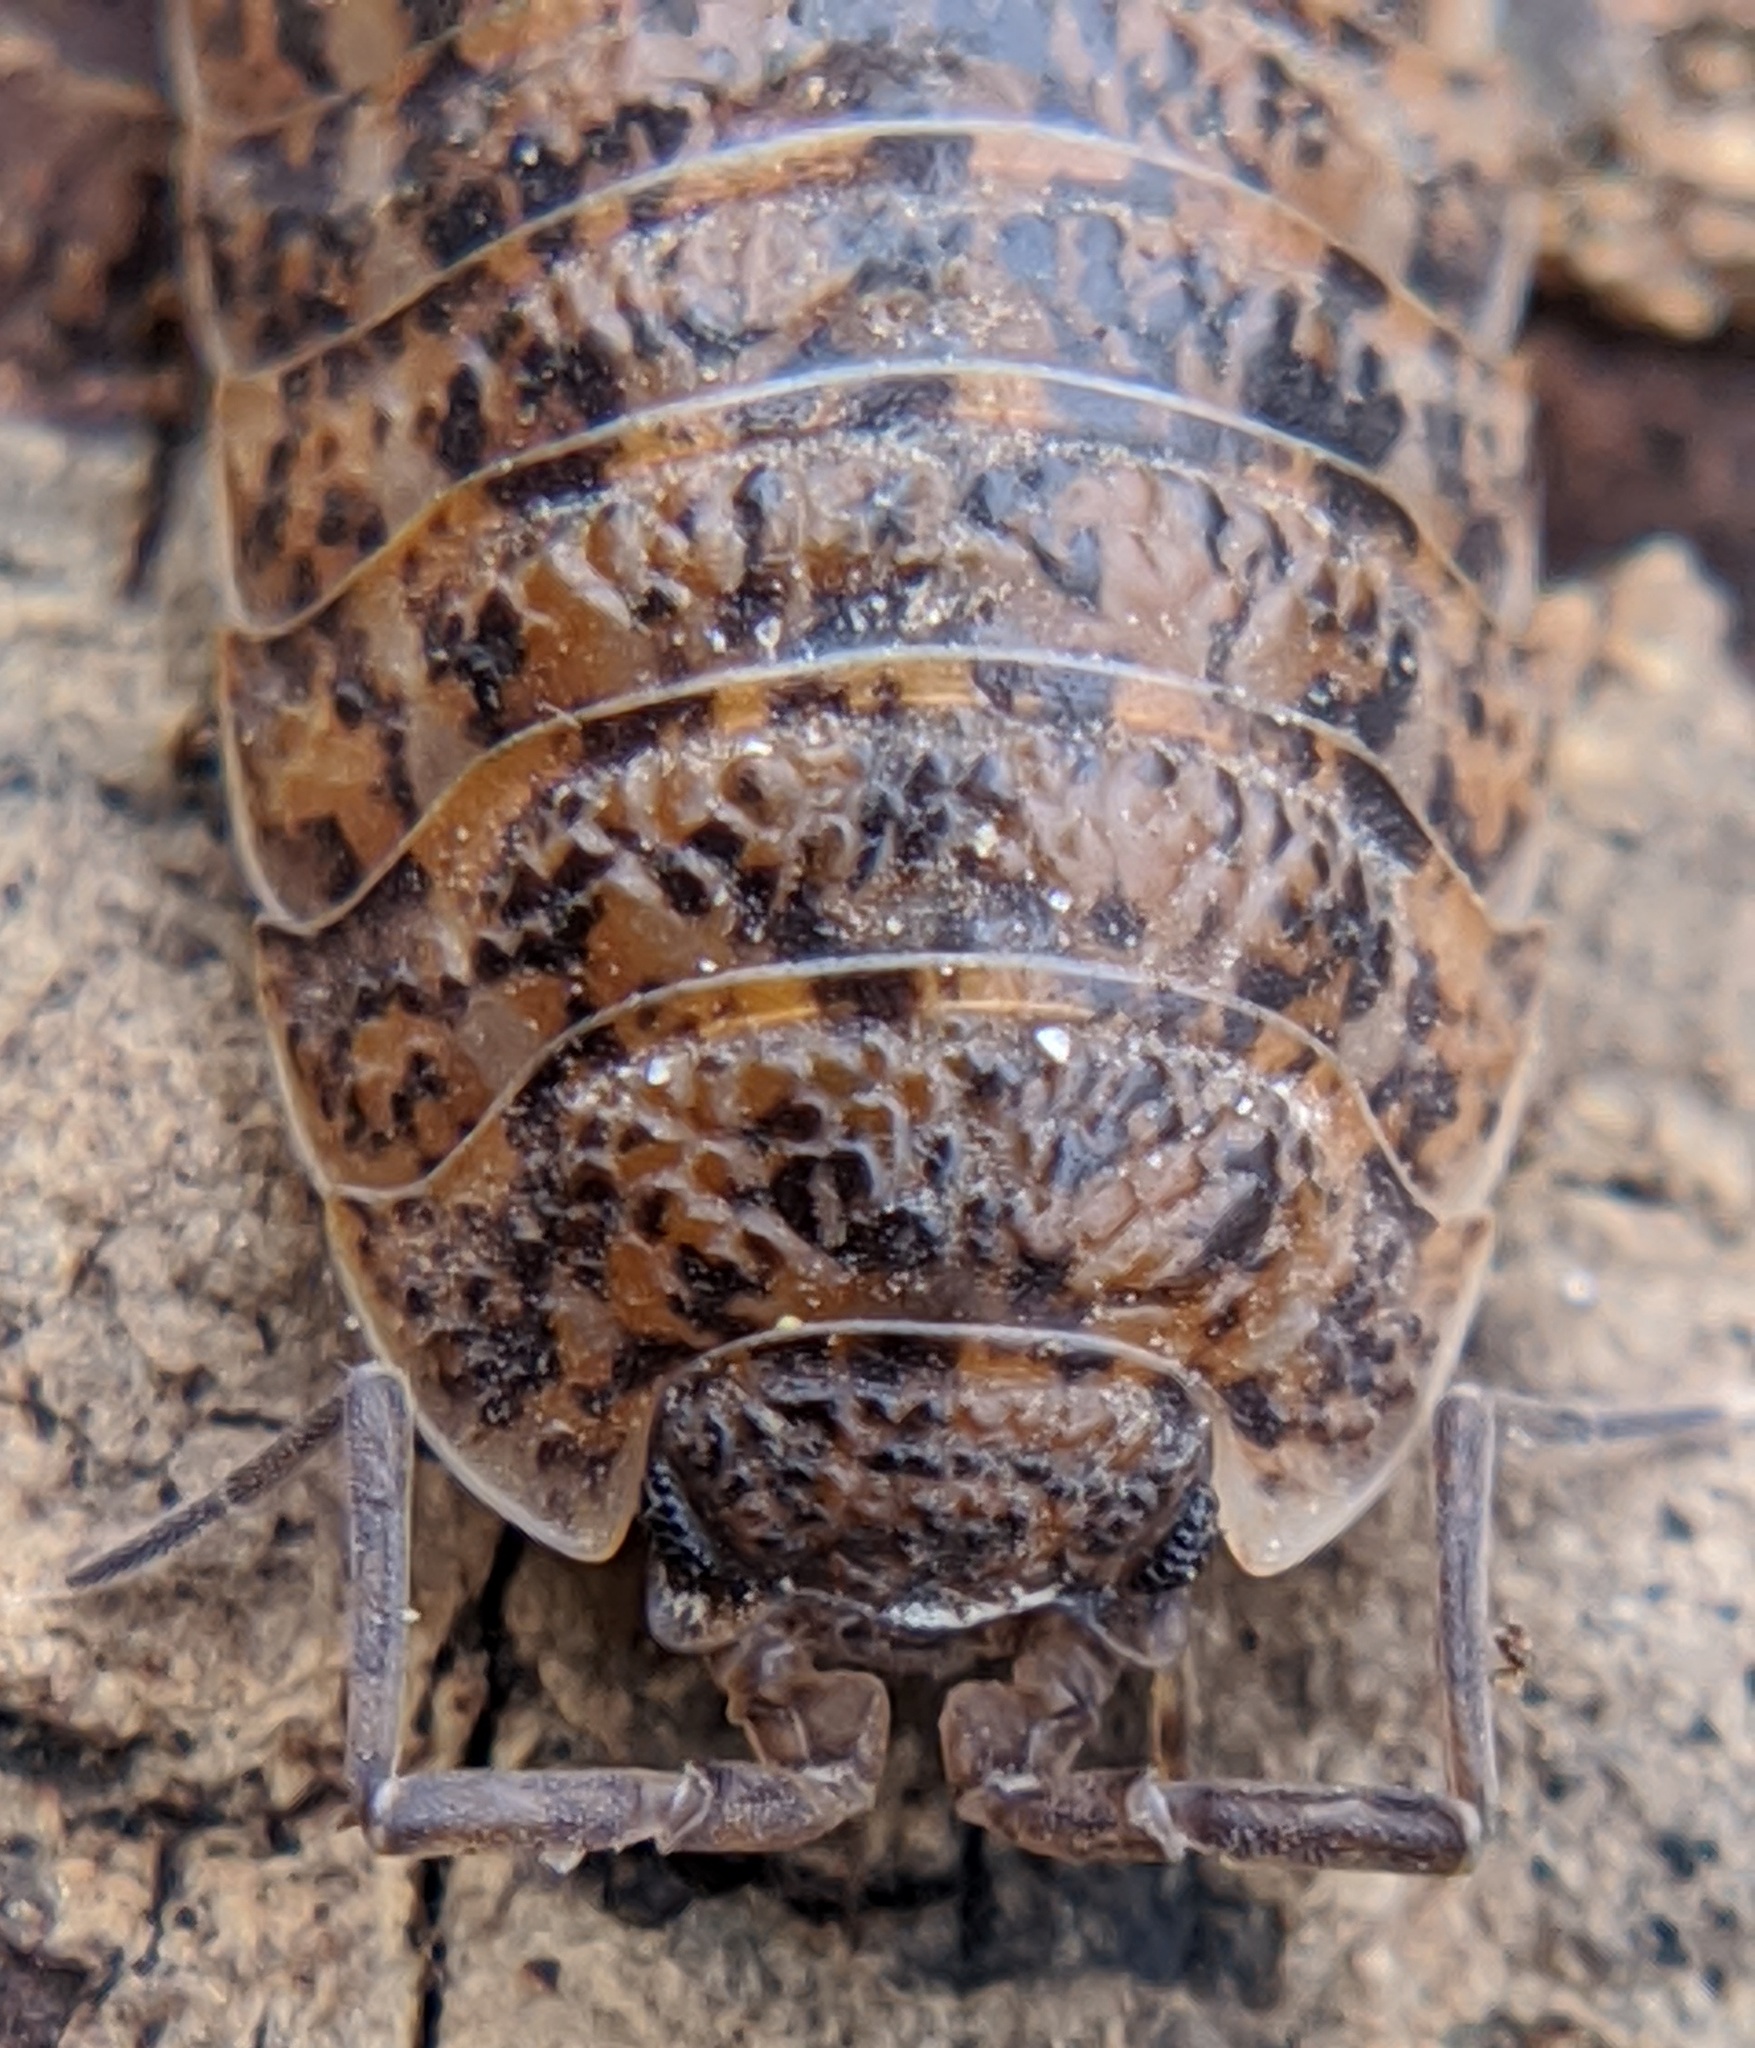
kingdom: Animalia
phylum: Arthropoda
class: Malacostraca
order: Isopoda
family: Trachelipodidae
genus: Trachelipus
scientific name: Trachelipus rathkii
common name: Isopod
